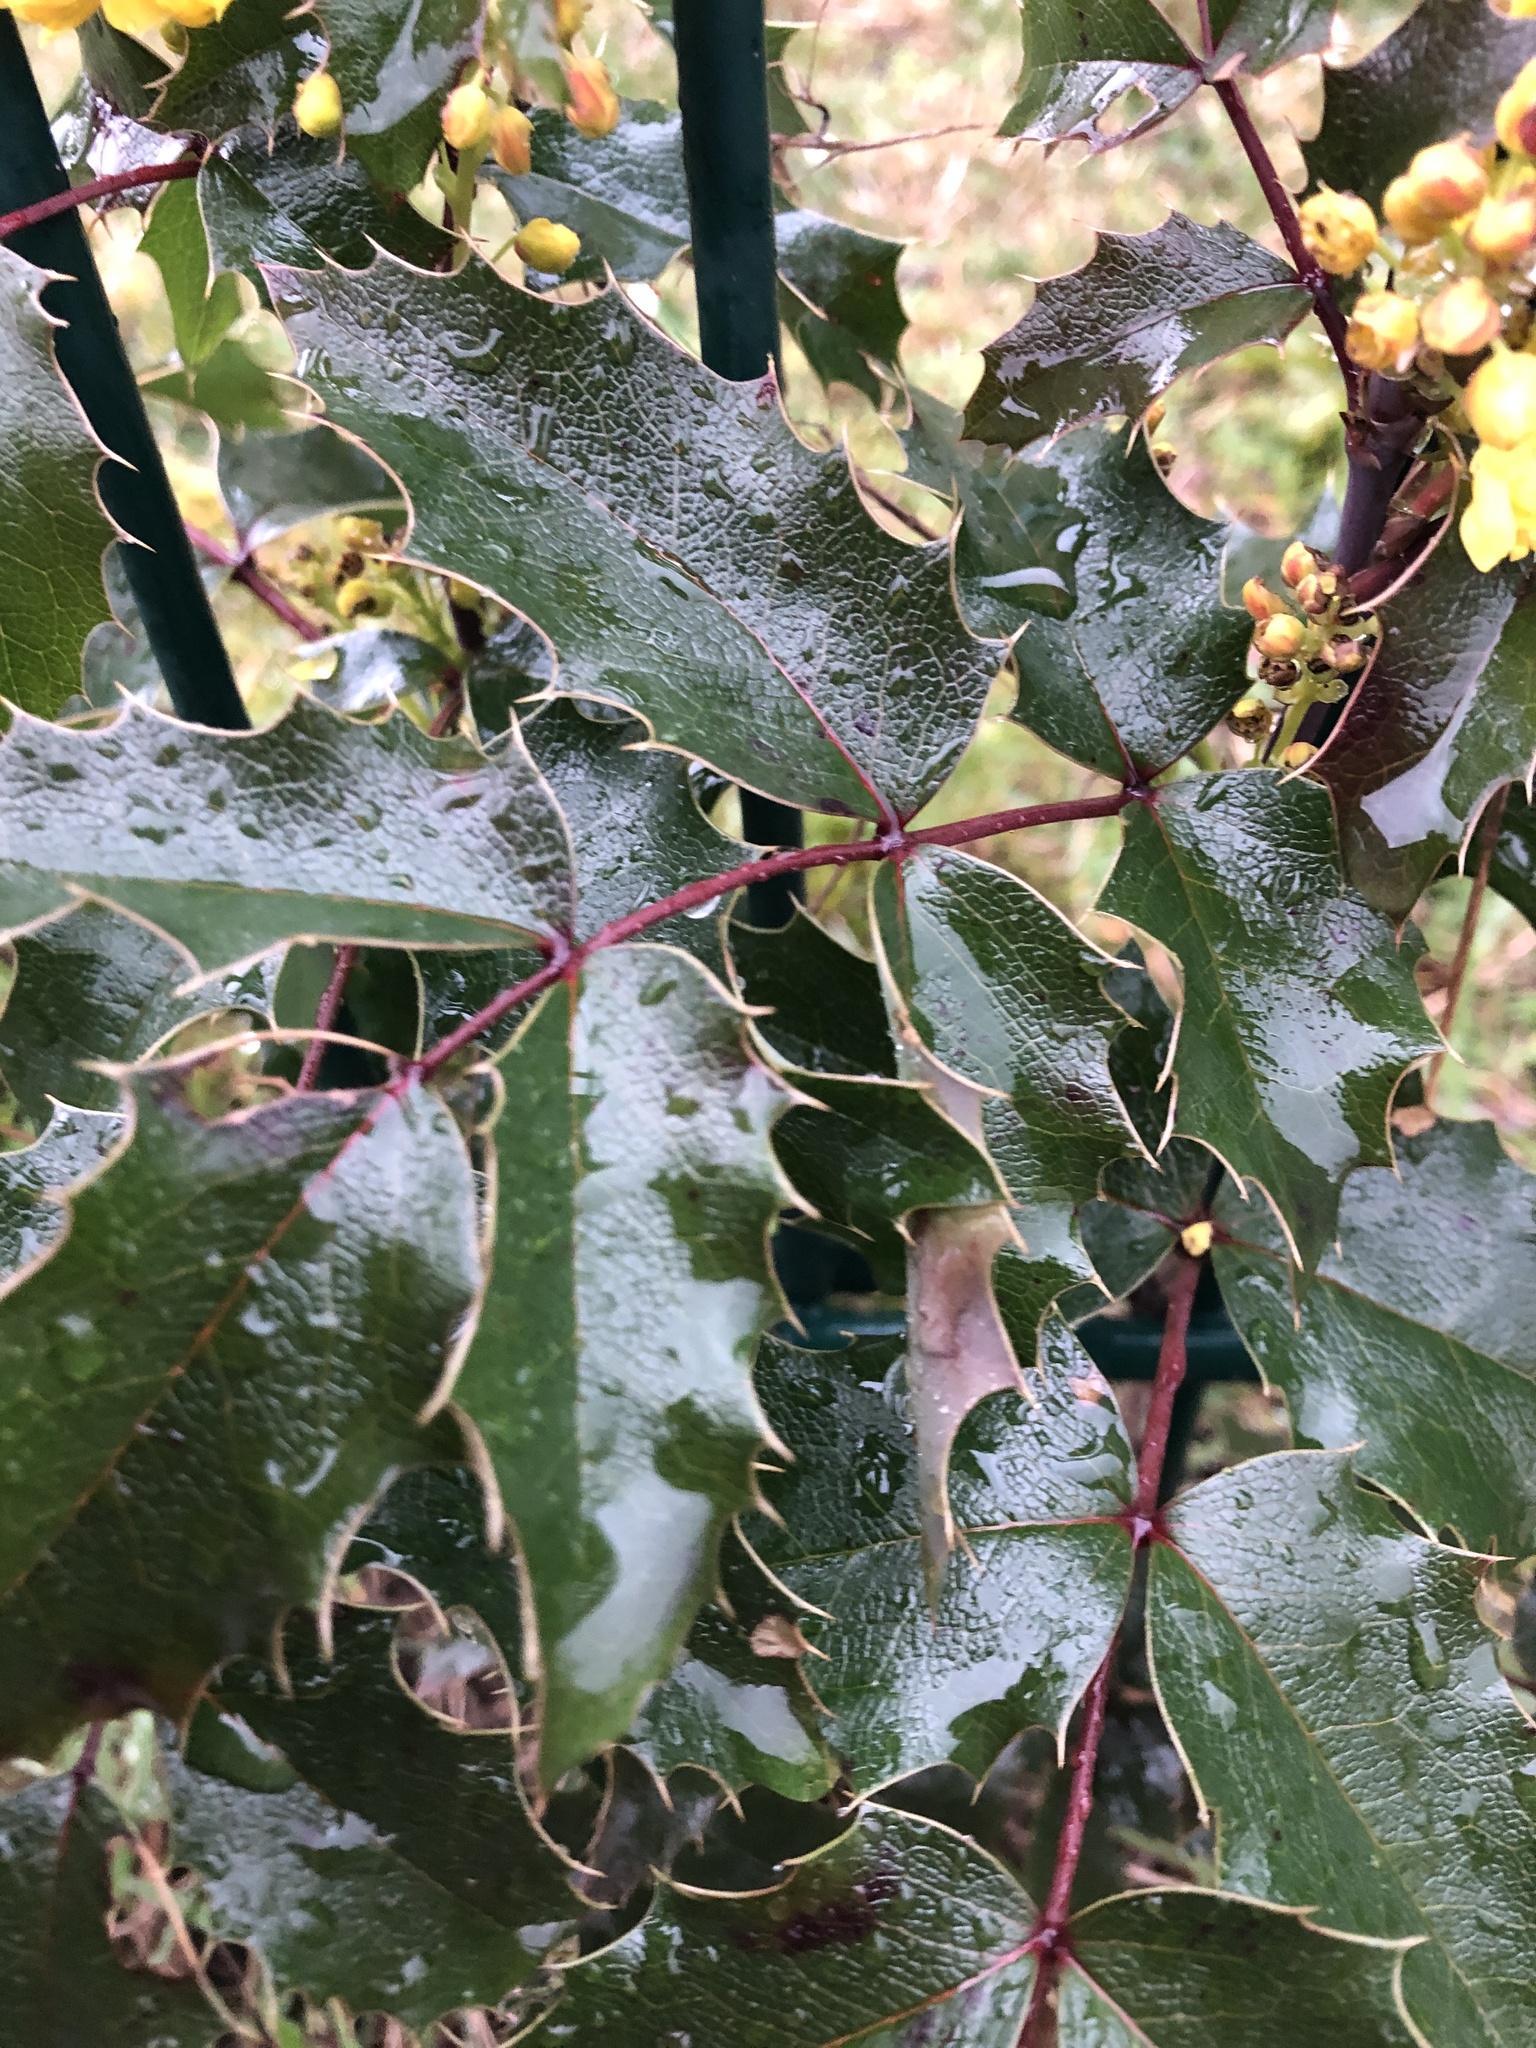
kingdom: Plantae
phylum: Tracheophyta
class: Magnoliopsida
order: Ranunculales
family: Berberidaceae
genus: Mahonia
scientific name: Mahonia aquifolium
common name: Oregon-grape
